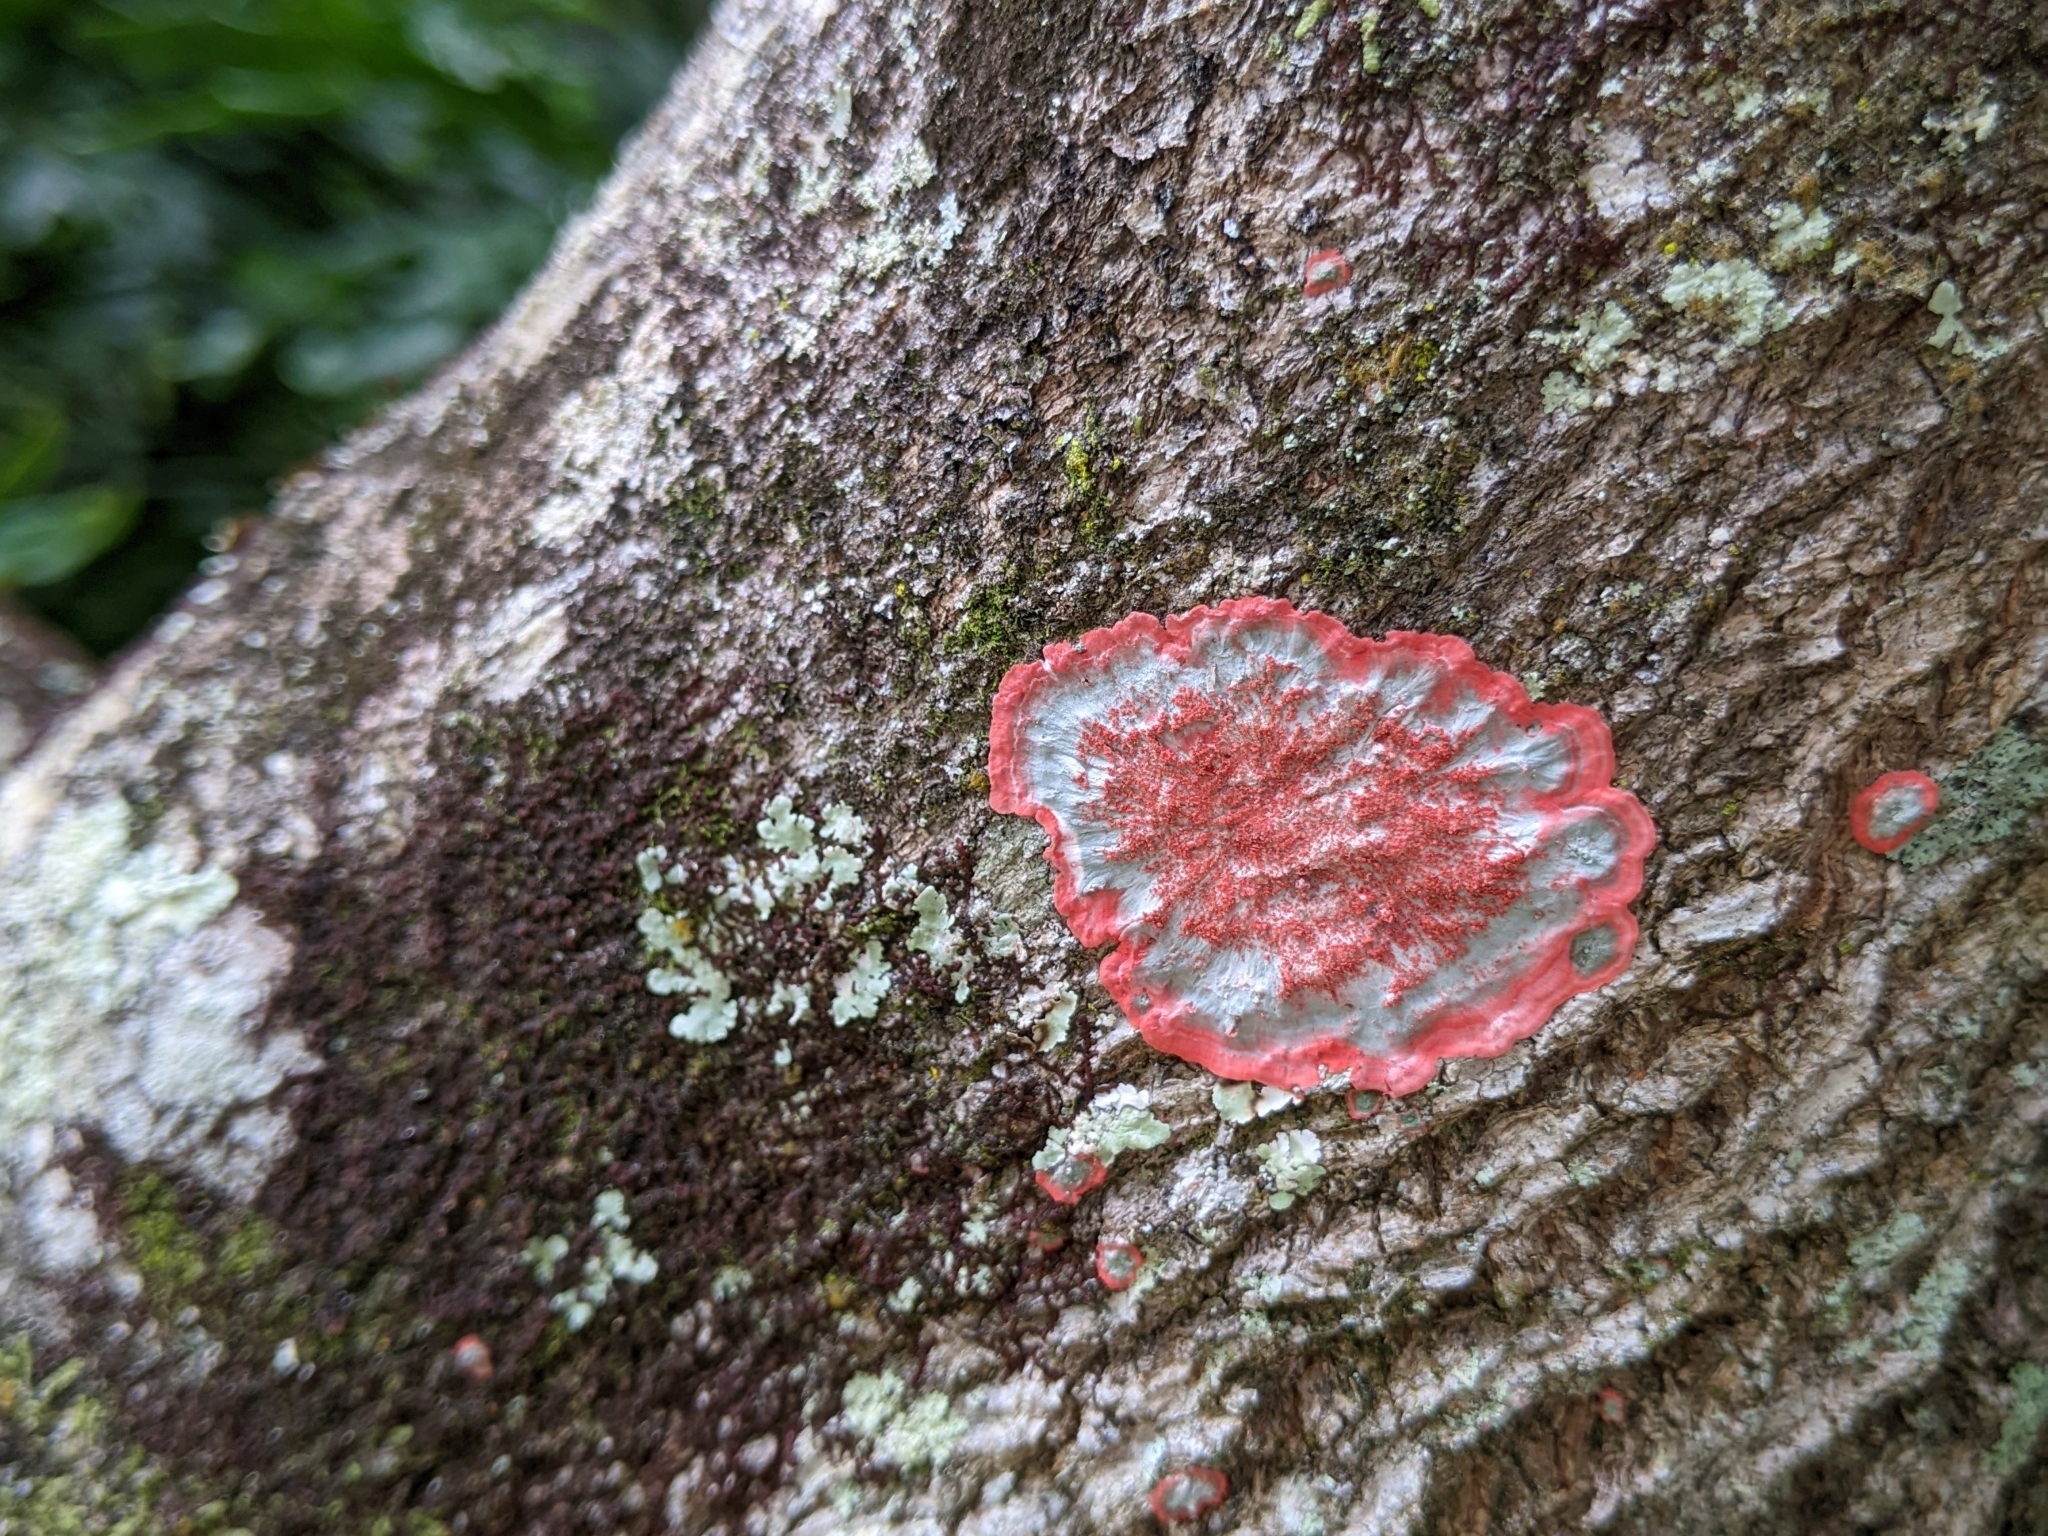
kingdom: Fungi
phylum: Ascomycota
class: Arthoniomycetes
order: Arthoniales
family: Arthoniaceae
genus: Herpothallon
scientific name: Herpothallon rubrocinctum
